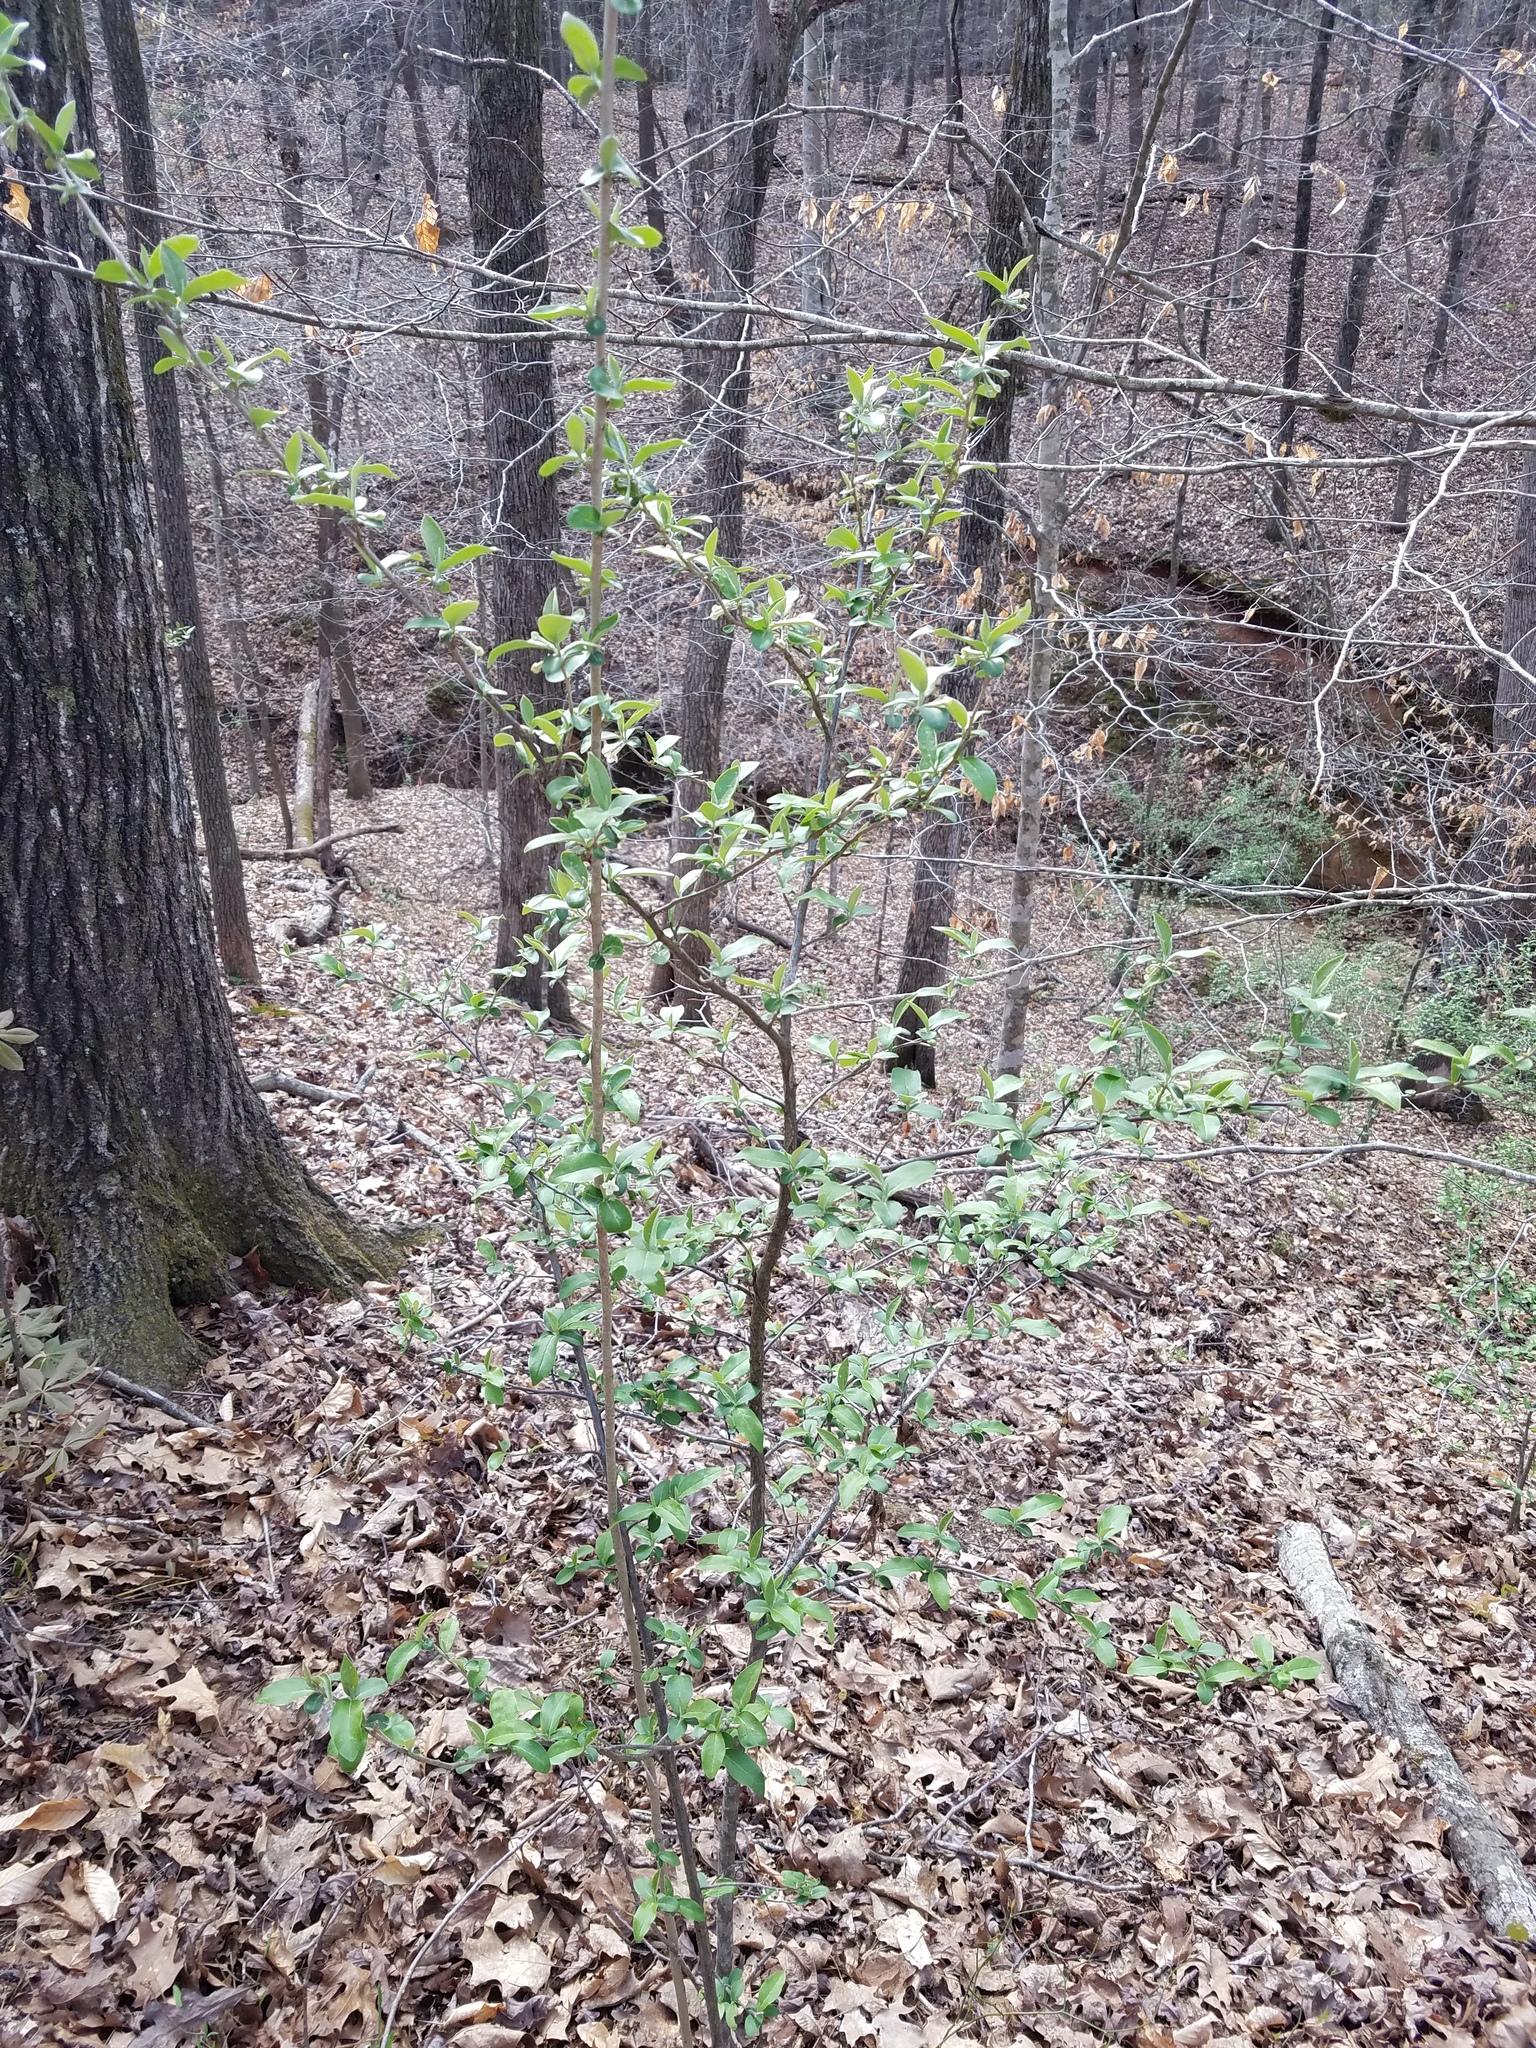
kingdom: Plantae
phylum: Tracheophyta
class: Magnoliopsida
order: Rosales
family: Elaeagnaceae
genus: Elaeagnus
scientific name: Elaeagnus umbellata
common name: Autumn olive
